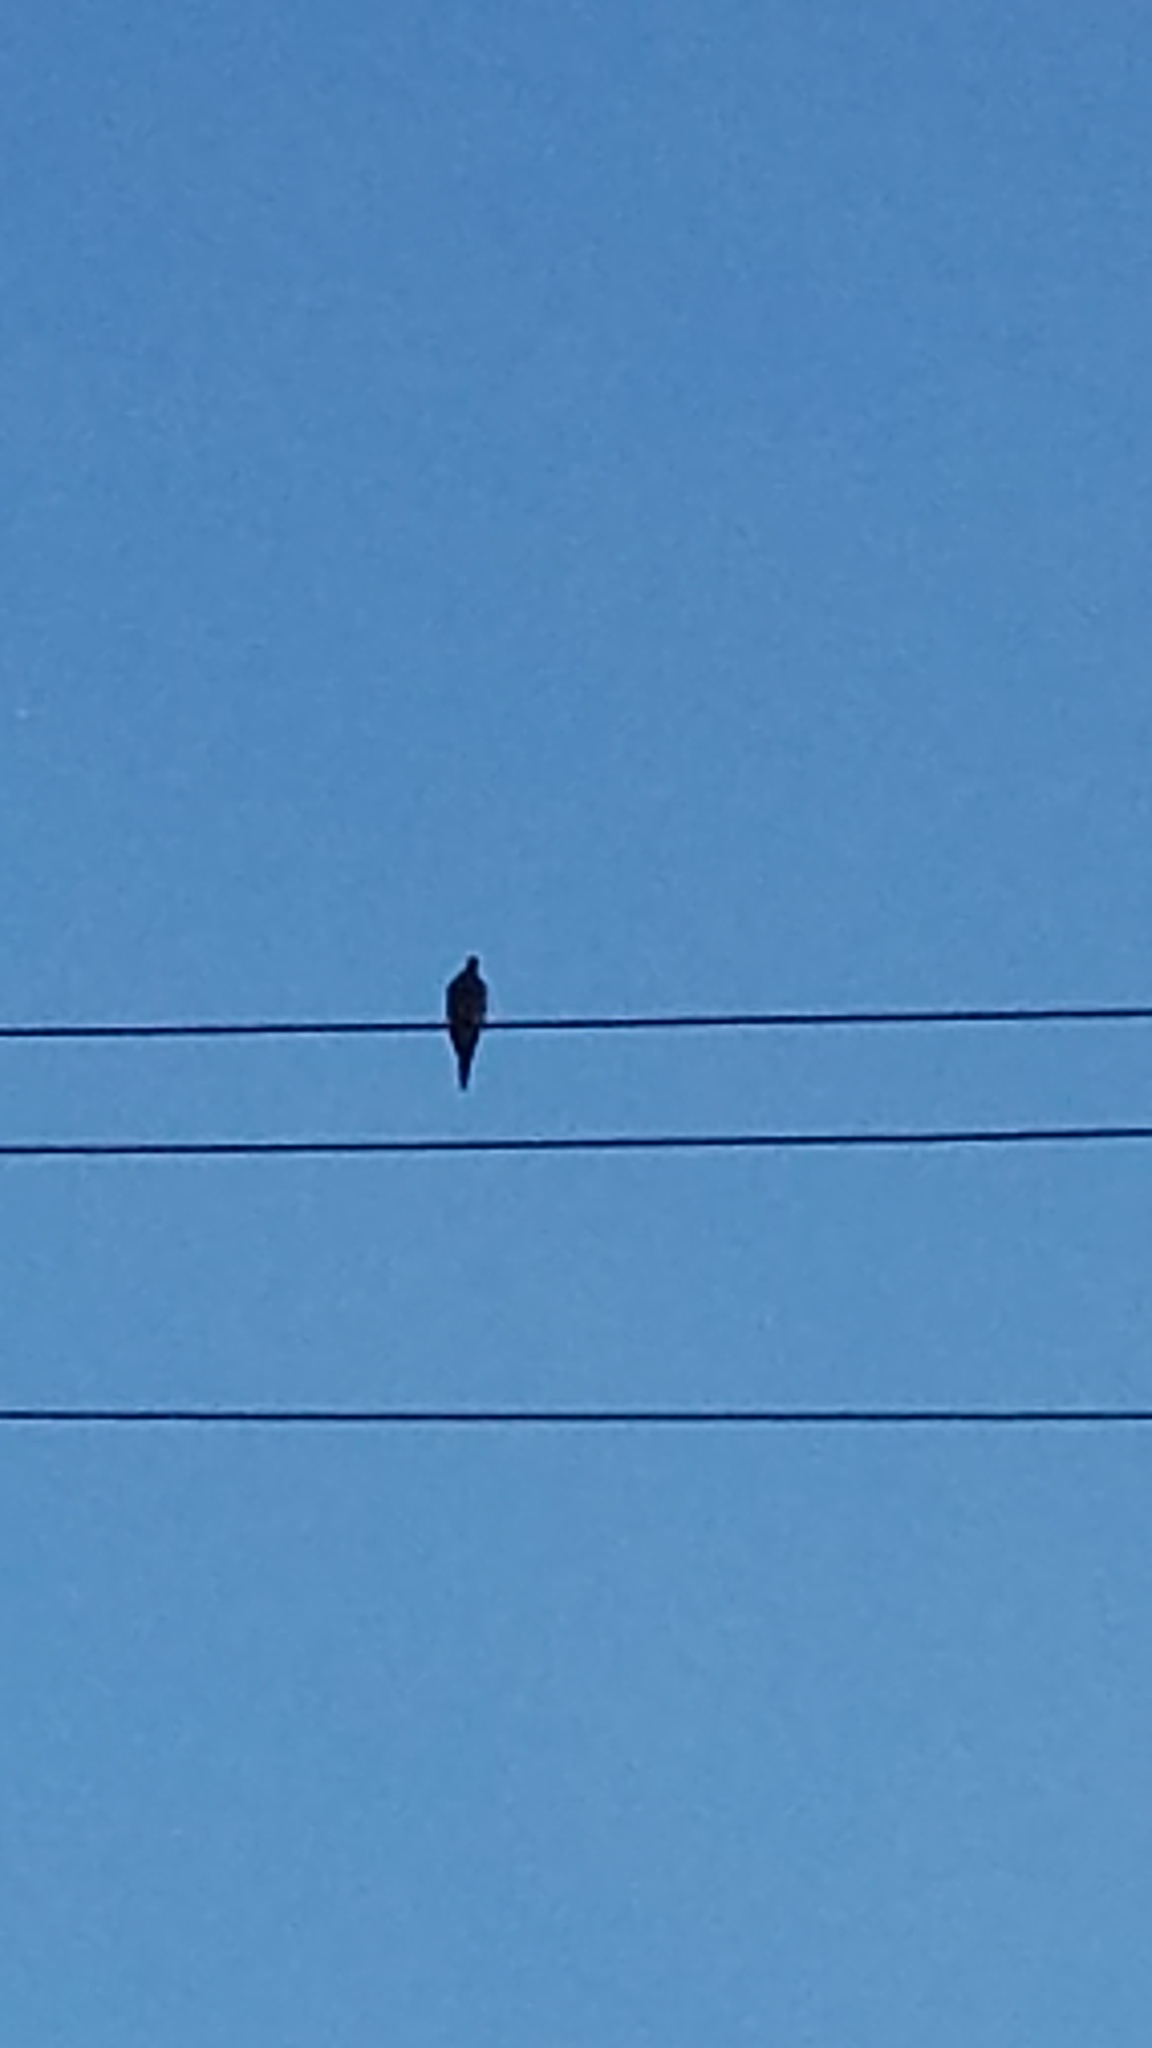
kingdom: Animalia
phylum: Chordata
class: Aves
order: Columbiformes
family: Columbidae
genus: Zenaida
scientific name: Zenaida macroura
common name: Mourning dove
